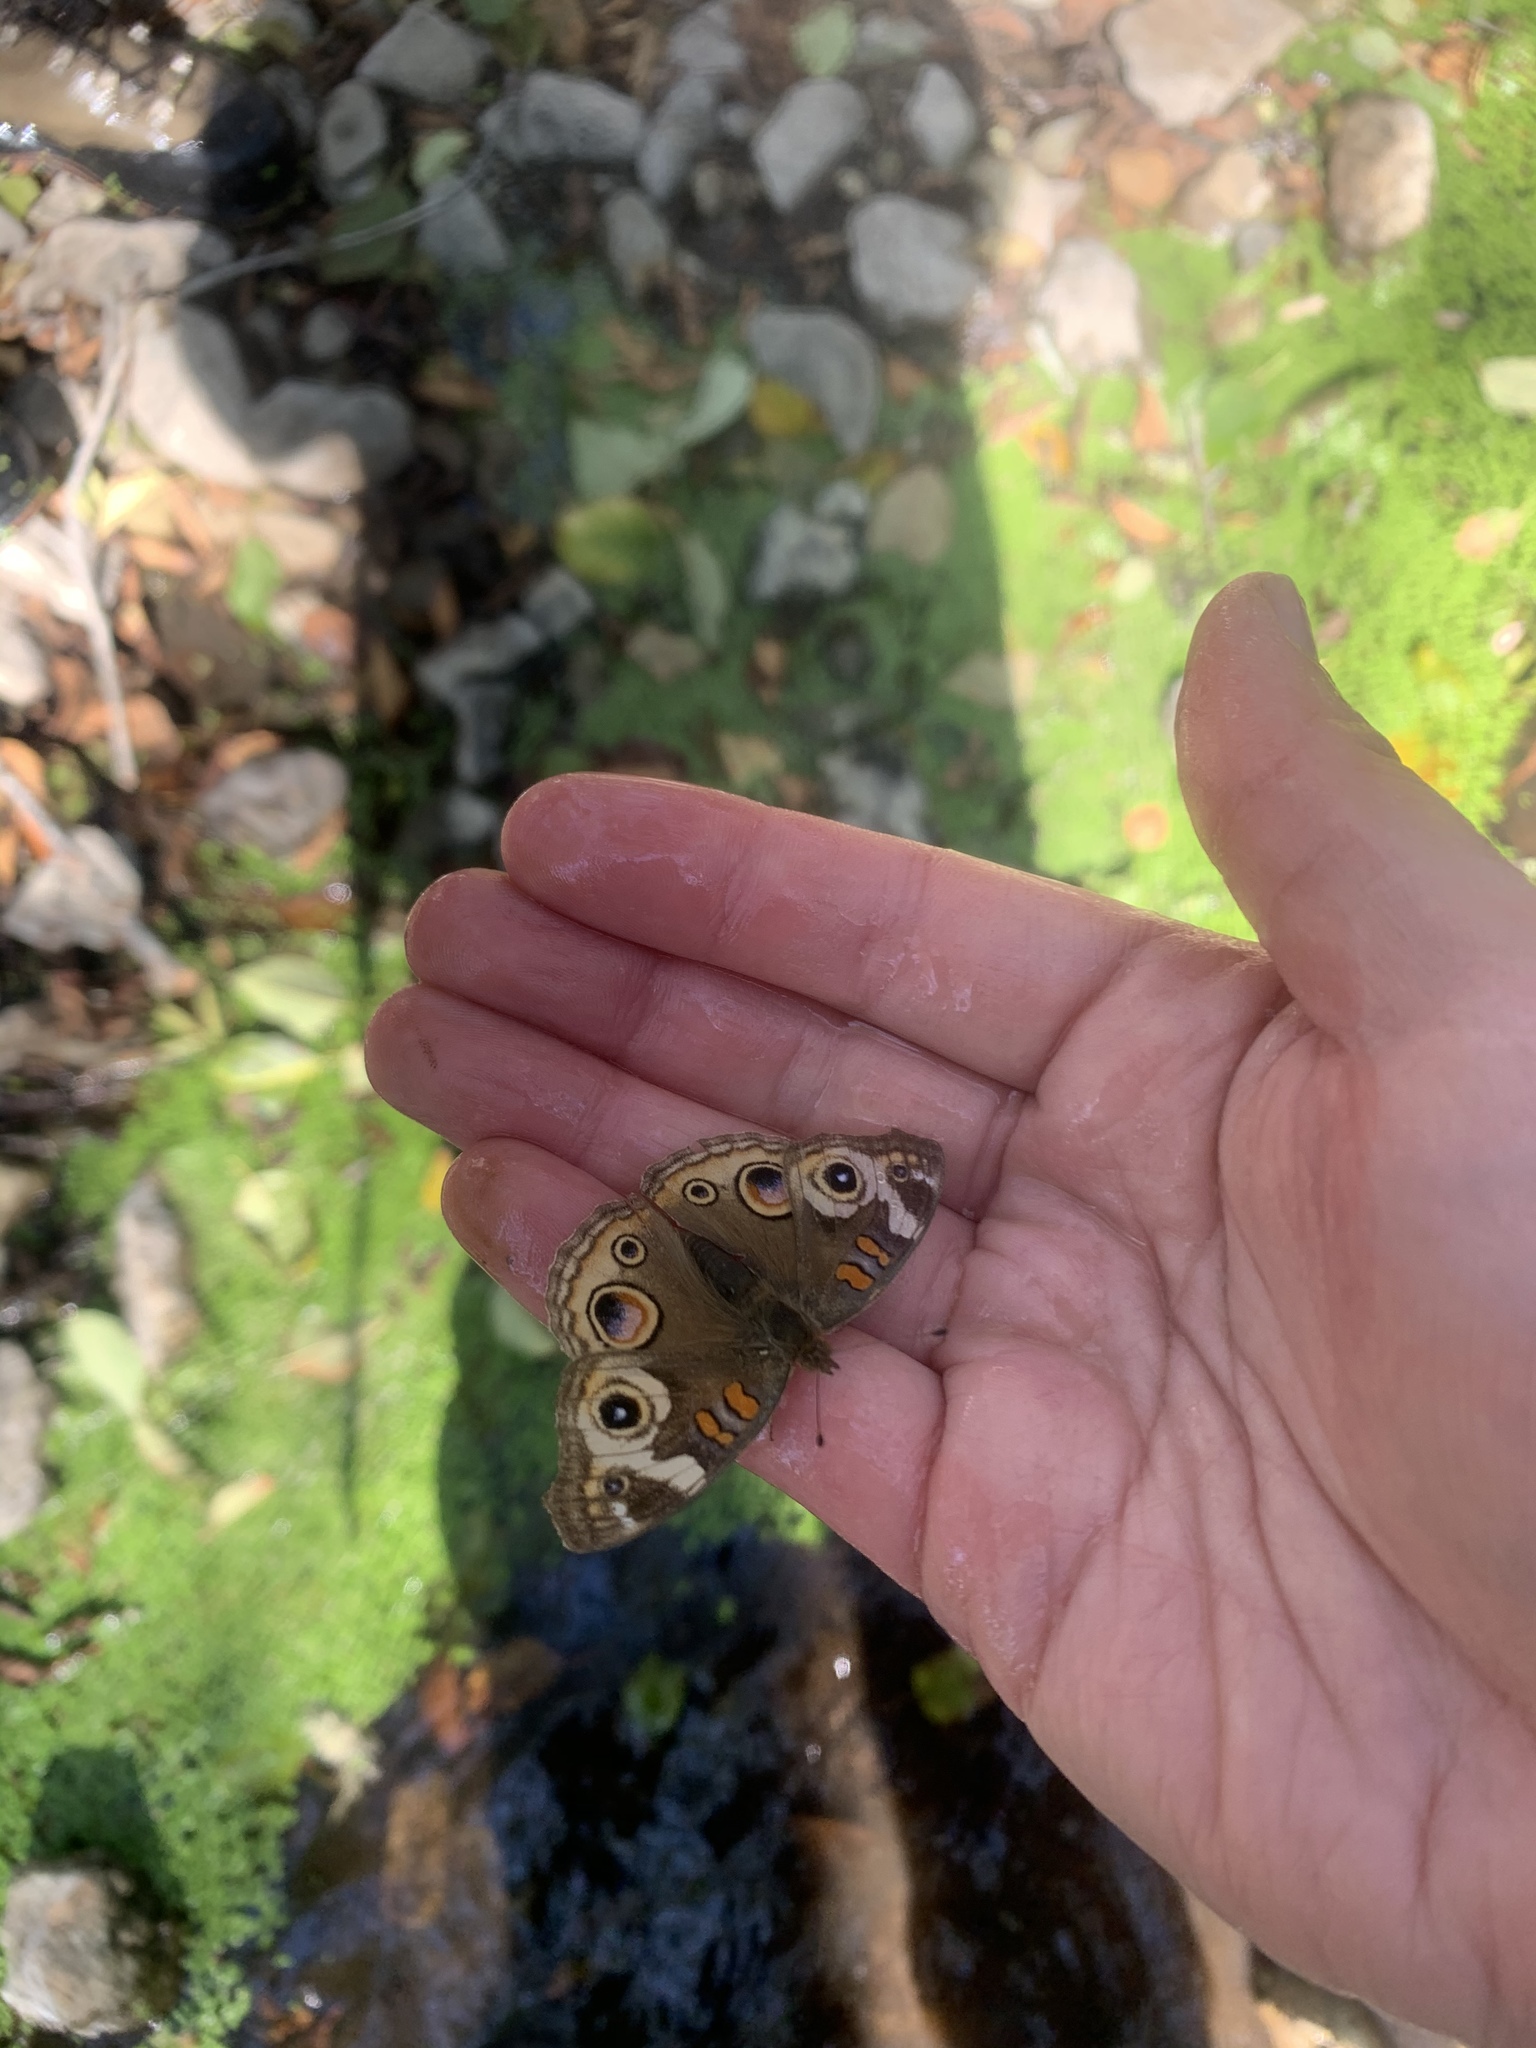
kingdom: Animalia
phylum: Arthropoda
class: Insecta
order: Lepidoptera
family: Nymphalidae
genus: Junonia
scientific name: Junonia grisea
